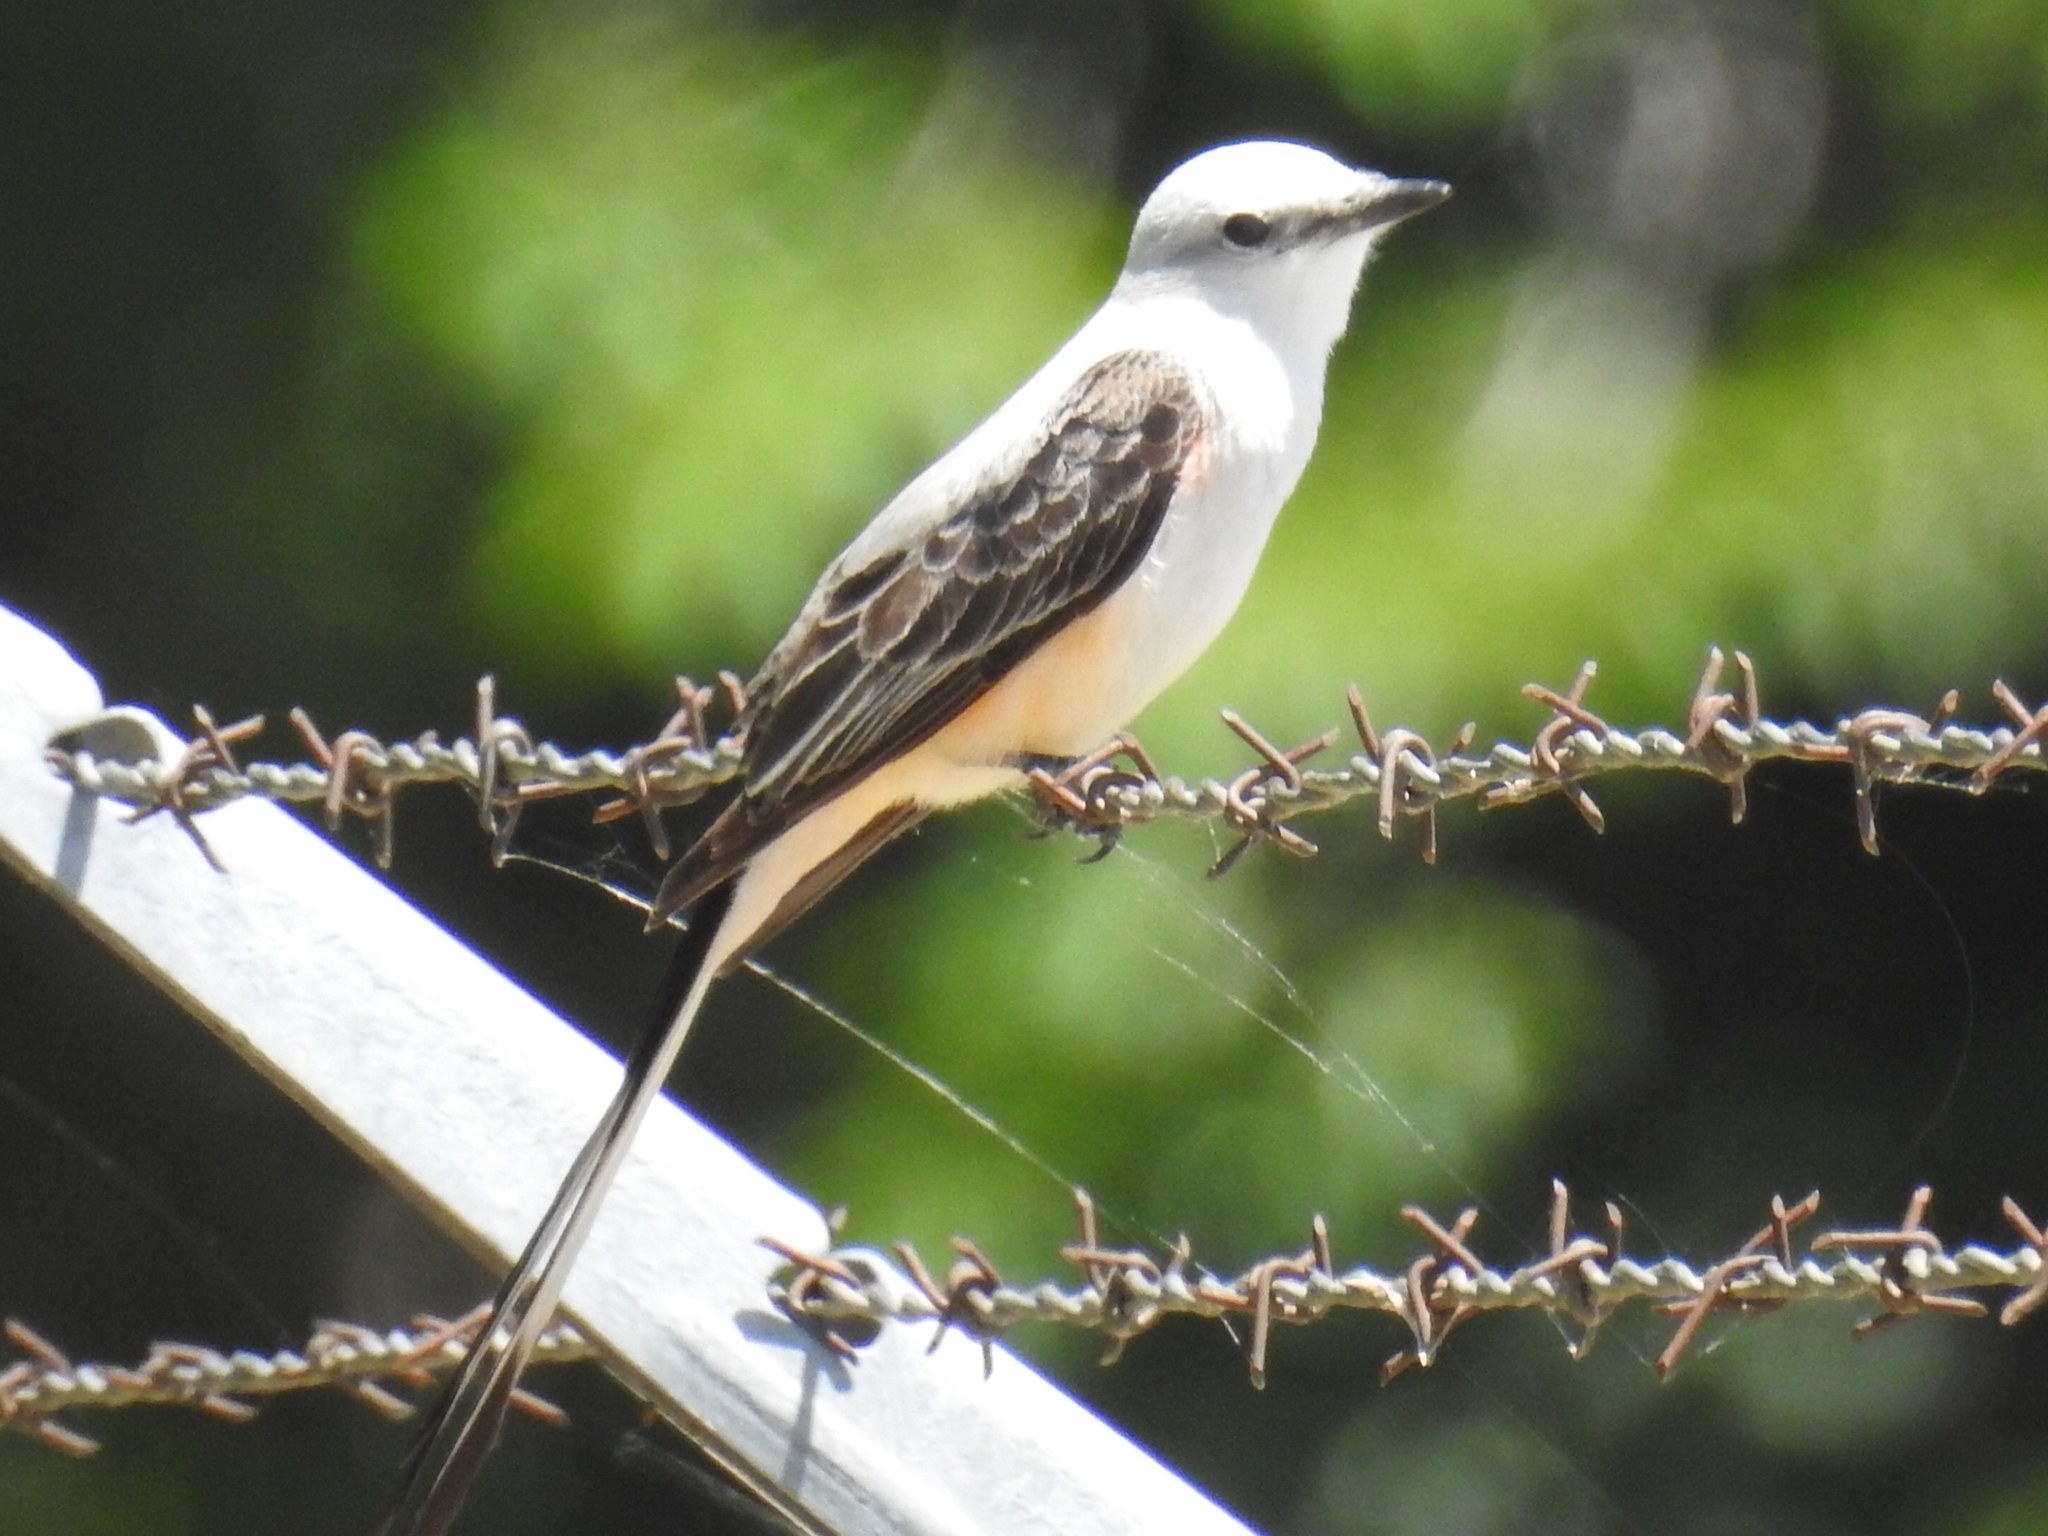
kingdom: Animalia
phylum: Chordata
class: Aves
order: Passeriformes
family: Tyrannidae
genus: Tyrannus
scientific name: Tyrannus forficatus
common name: Scissor-tailed flycatcher
